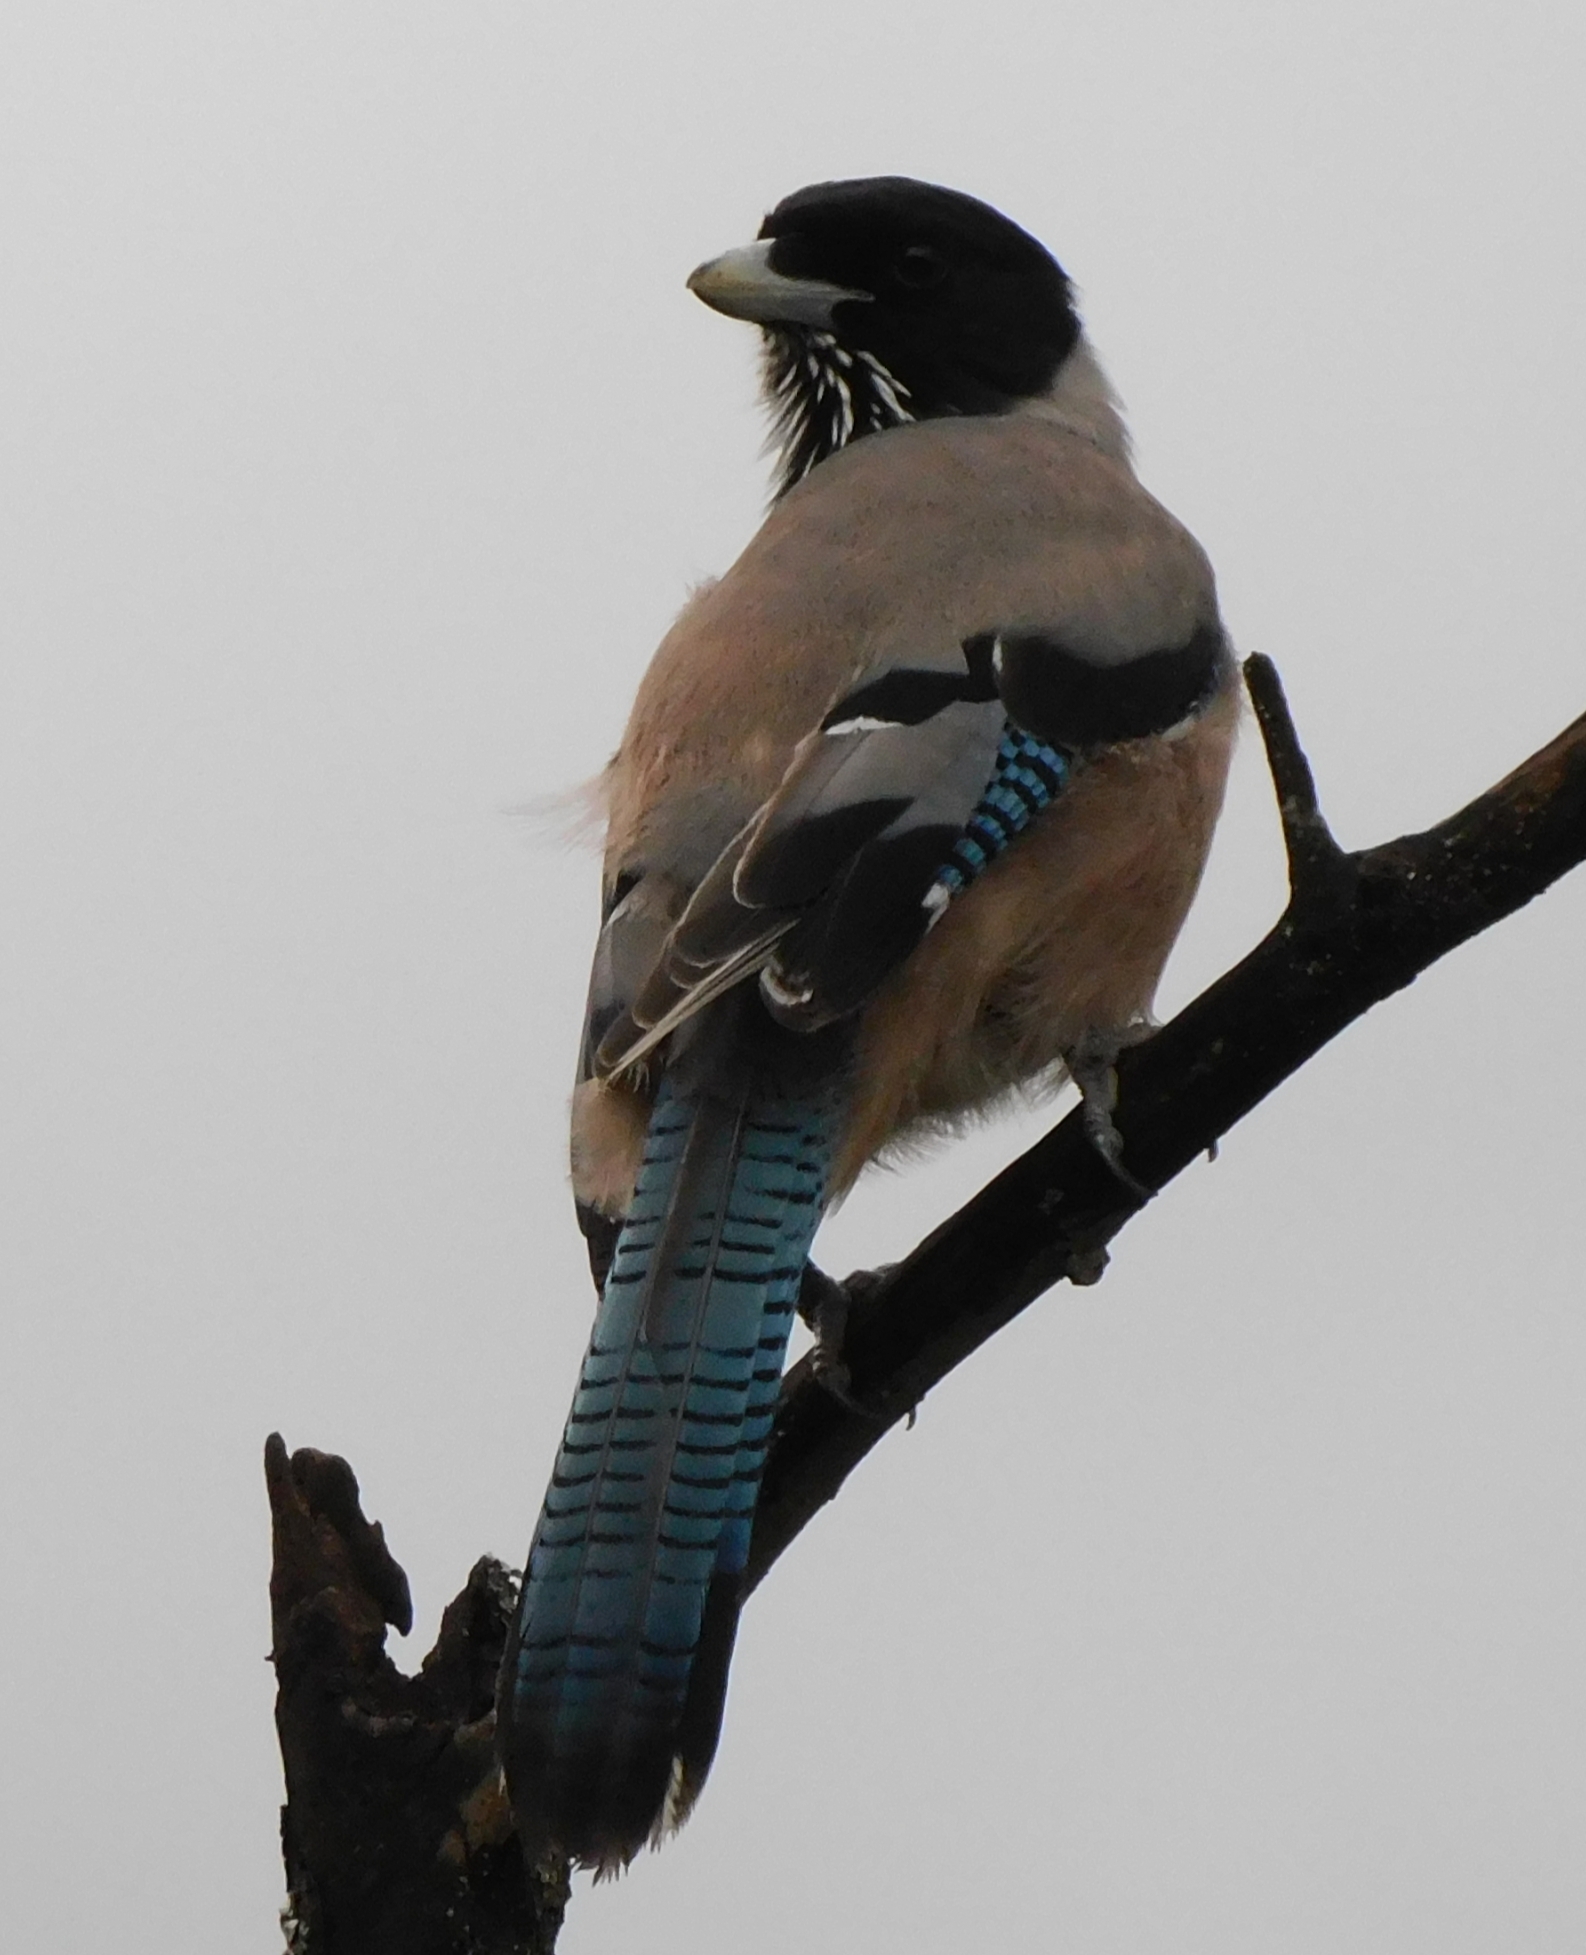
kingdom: Animalia
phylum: Chordata
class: Aves
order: Passeriformes
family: Corvidae
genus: Garrulus
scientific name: Garrulus lanceolatus
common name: Black-headed jay
